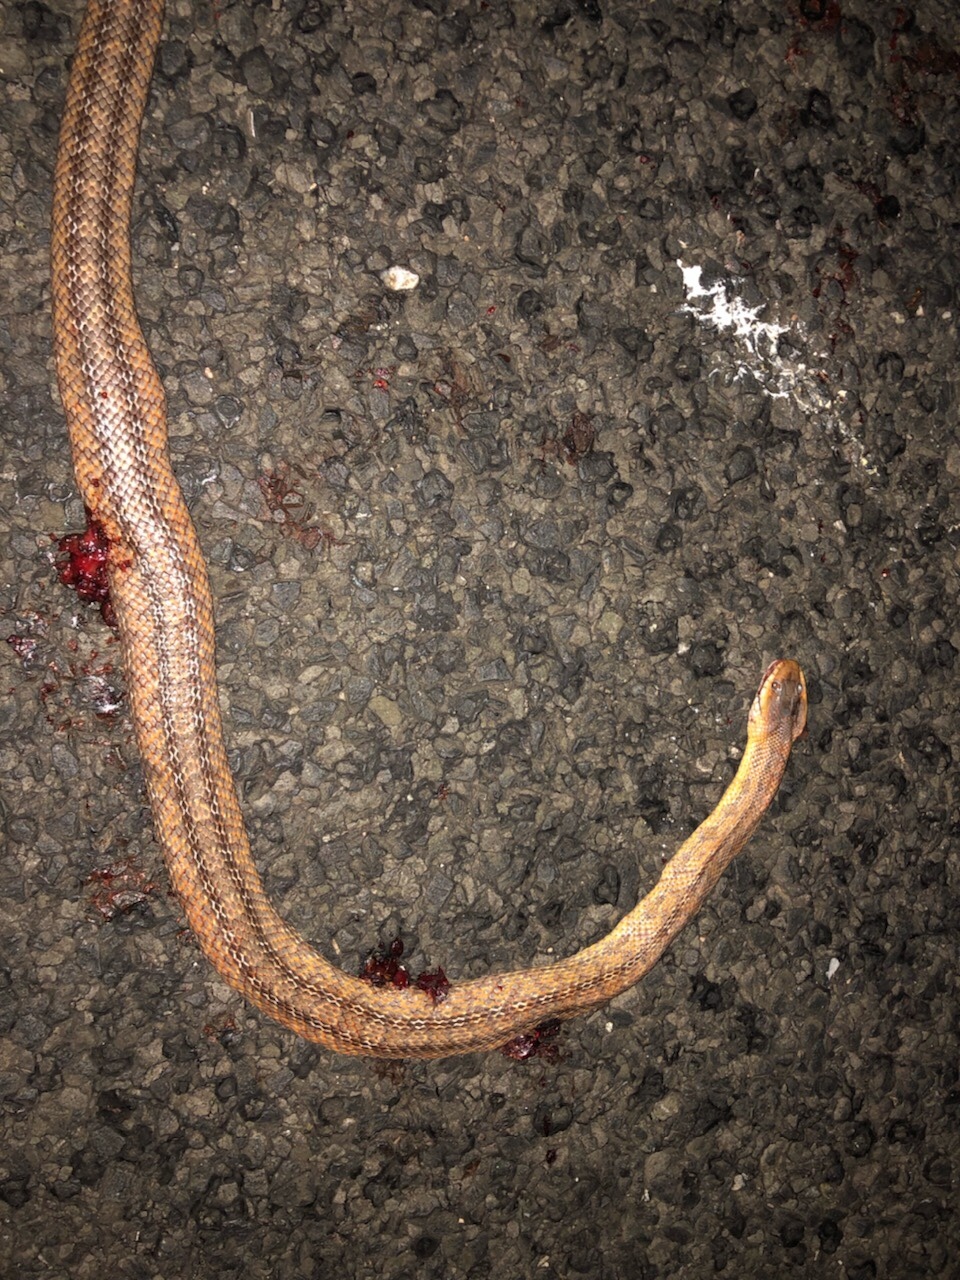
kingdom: Animalia
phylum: Chordata
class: Squamata
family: Colubridae
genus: Pantherophis
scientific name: Pantherophis bairdi
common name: Baird's rat snake
